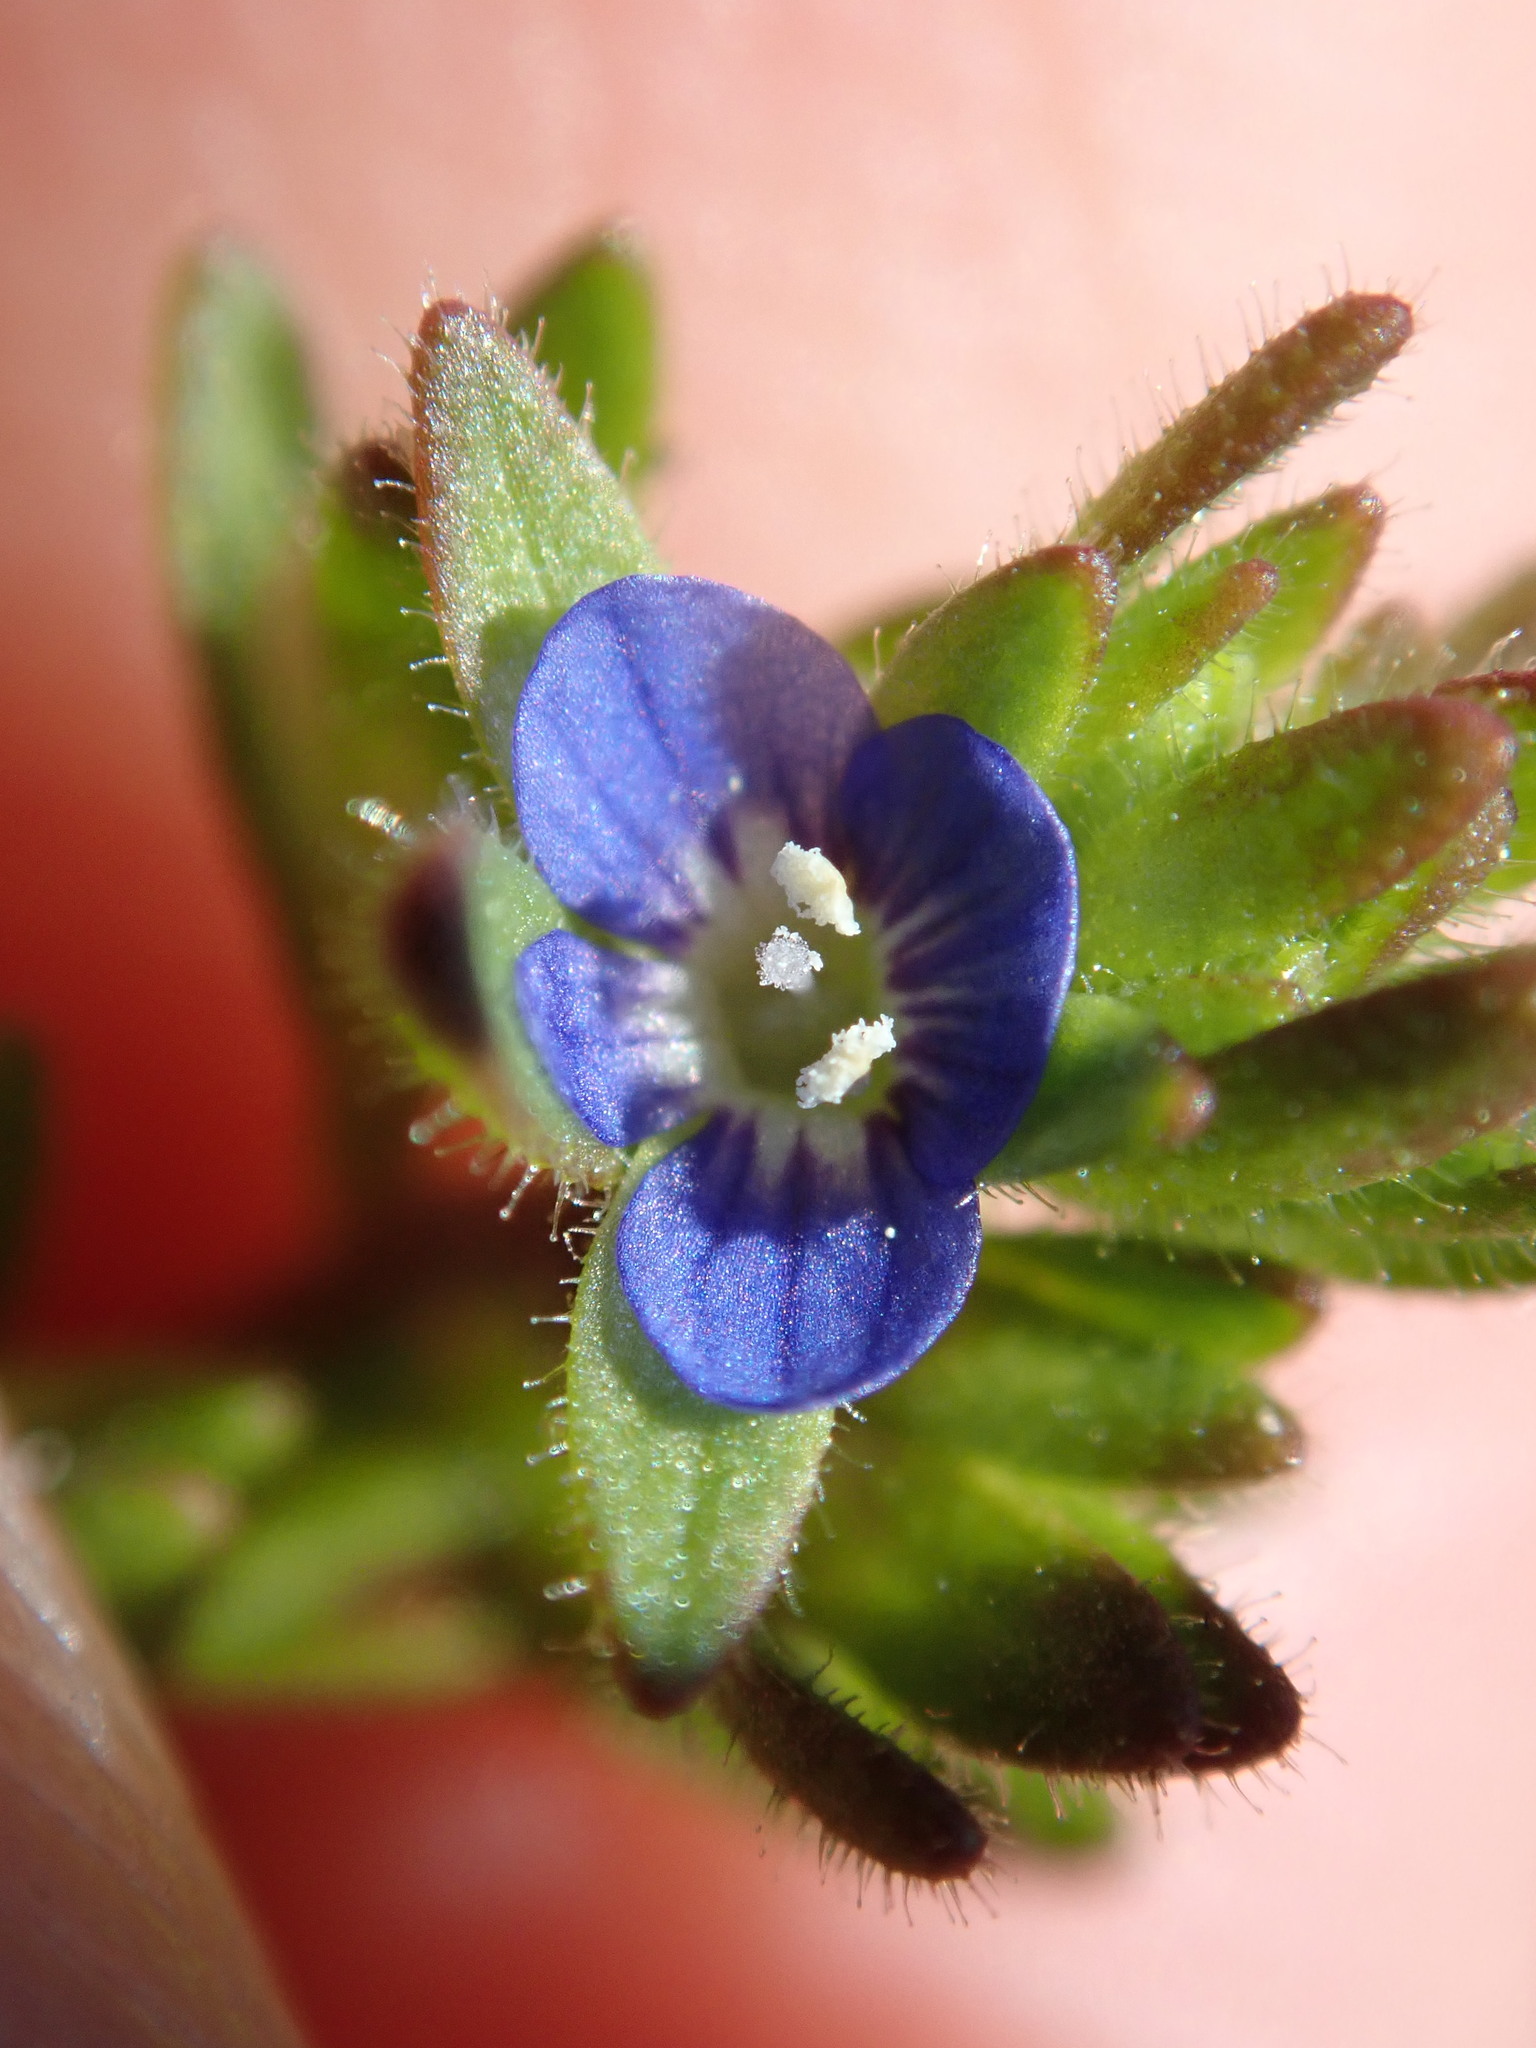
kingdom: Plantae
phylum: Tracheophyta
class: Magnoliopsida
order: Lamiales
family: Plantaginaceae
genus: Veronica
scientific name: Veronica arvensis
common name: Corn speedwell
